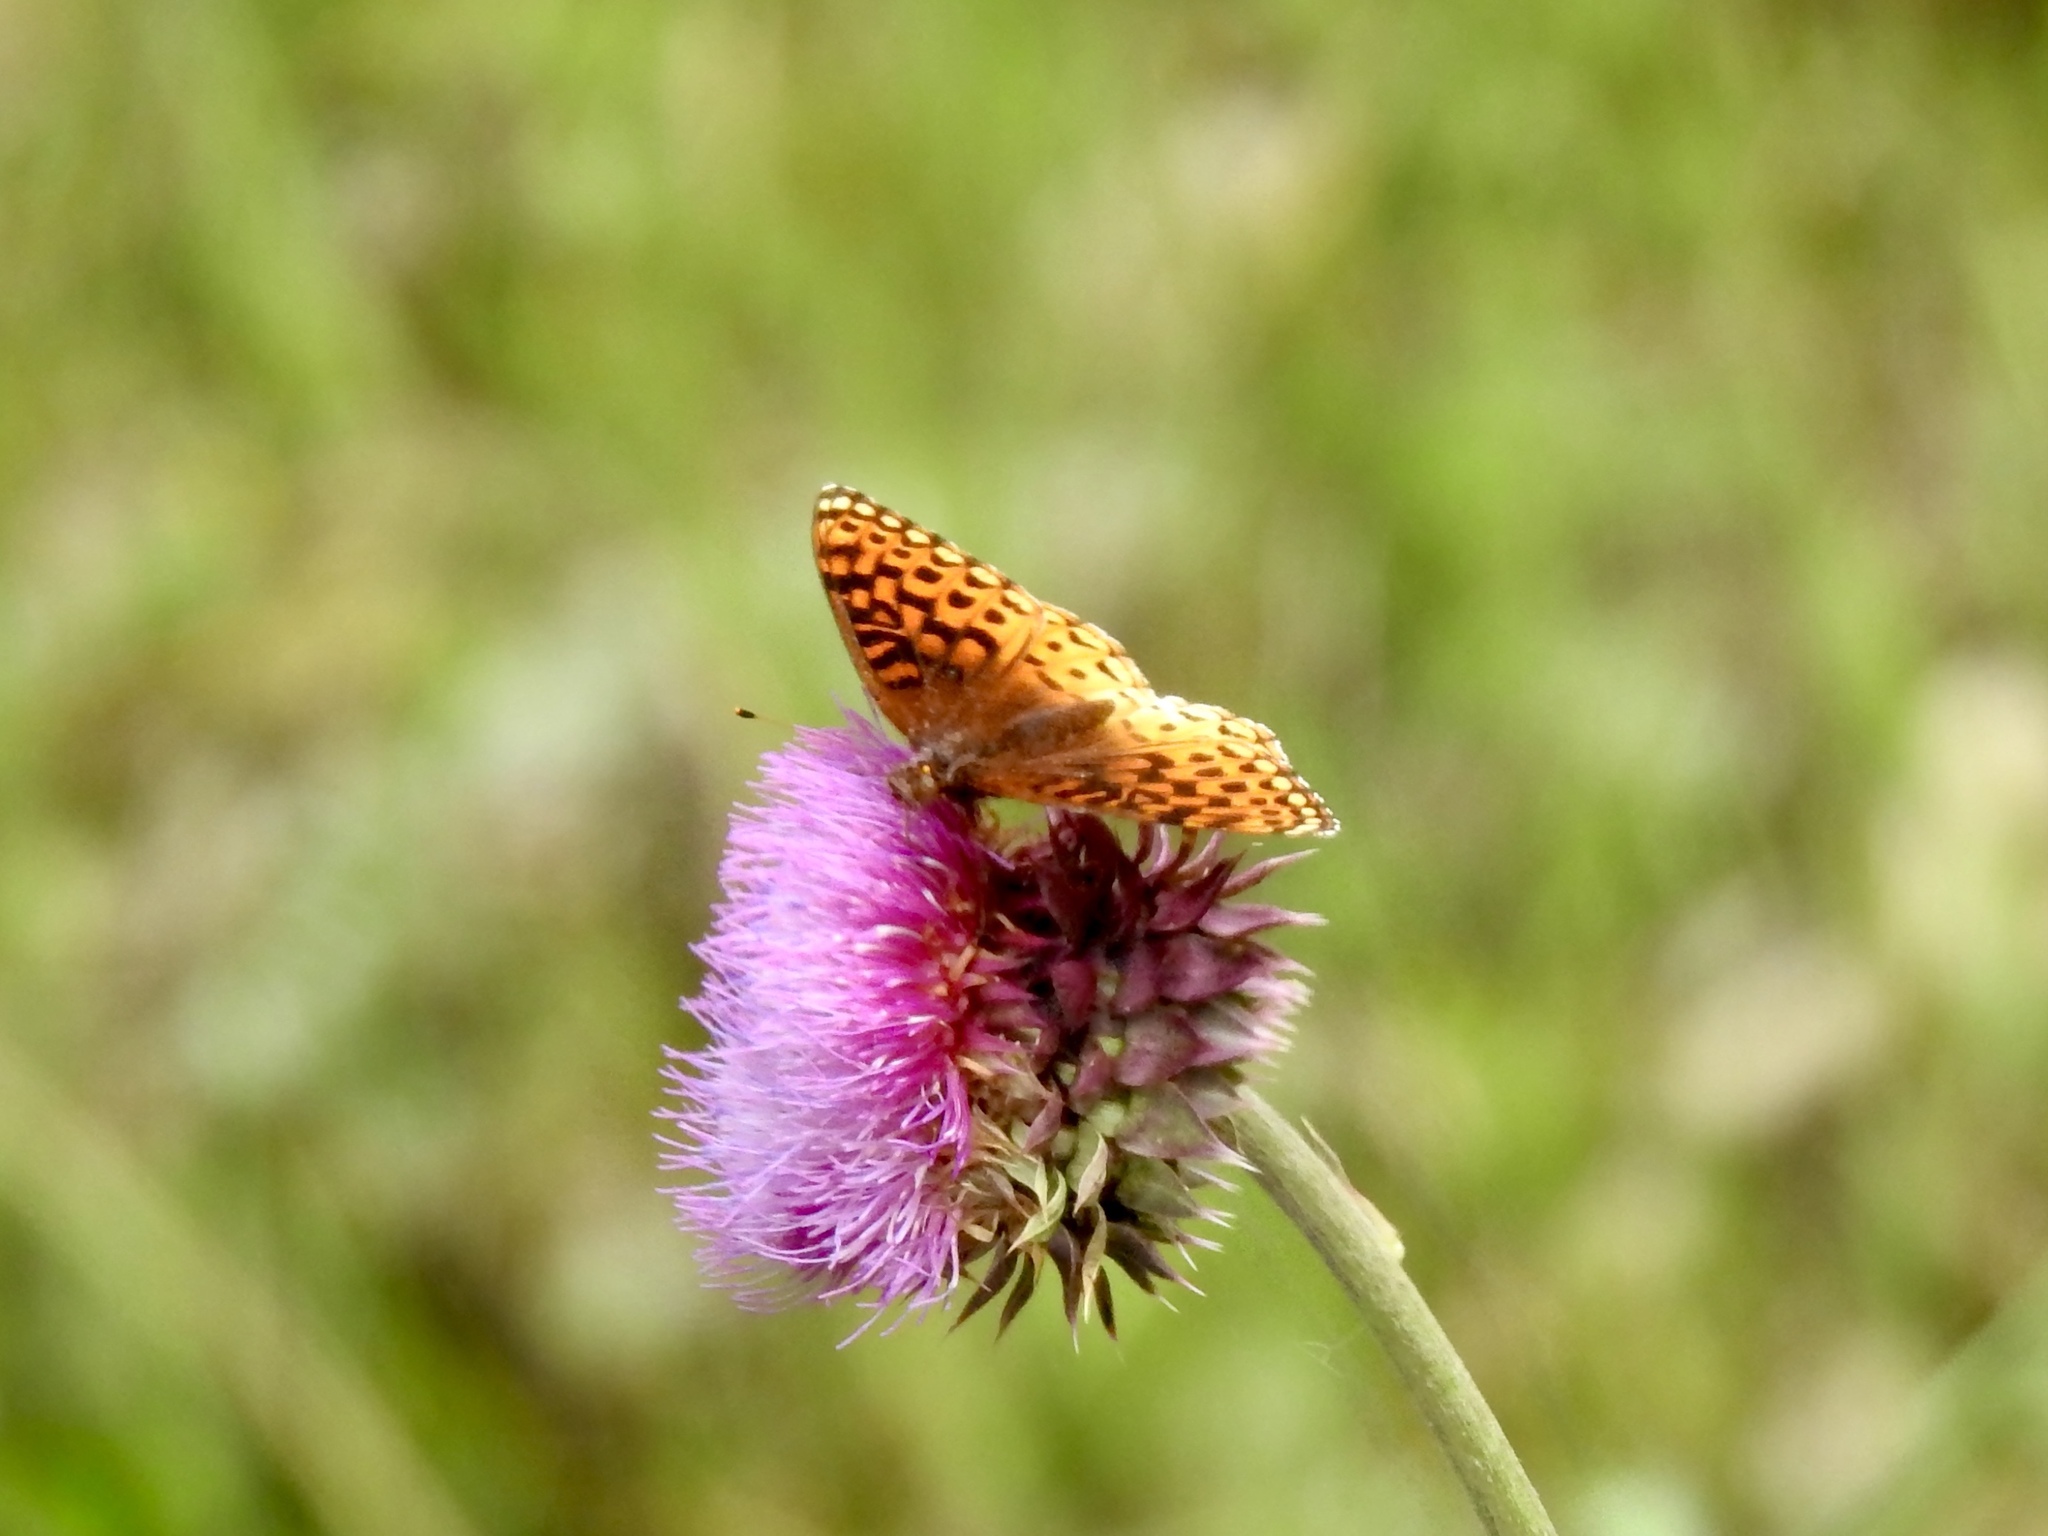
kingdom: Animalia
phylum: Arthropoda
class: Insecta
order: Lepidoptera
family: Nymphalidae
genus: Speyeria
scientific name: Speyeria atlantis
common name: Atlantis fritillary
